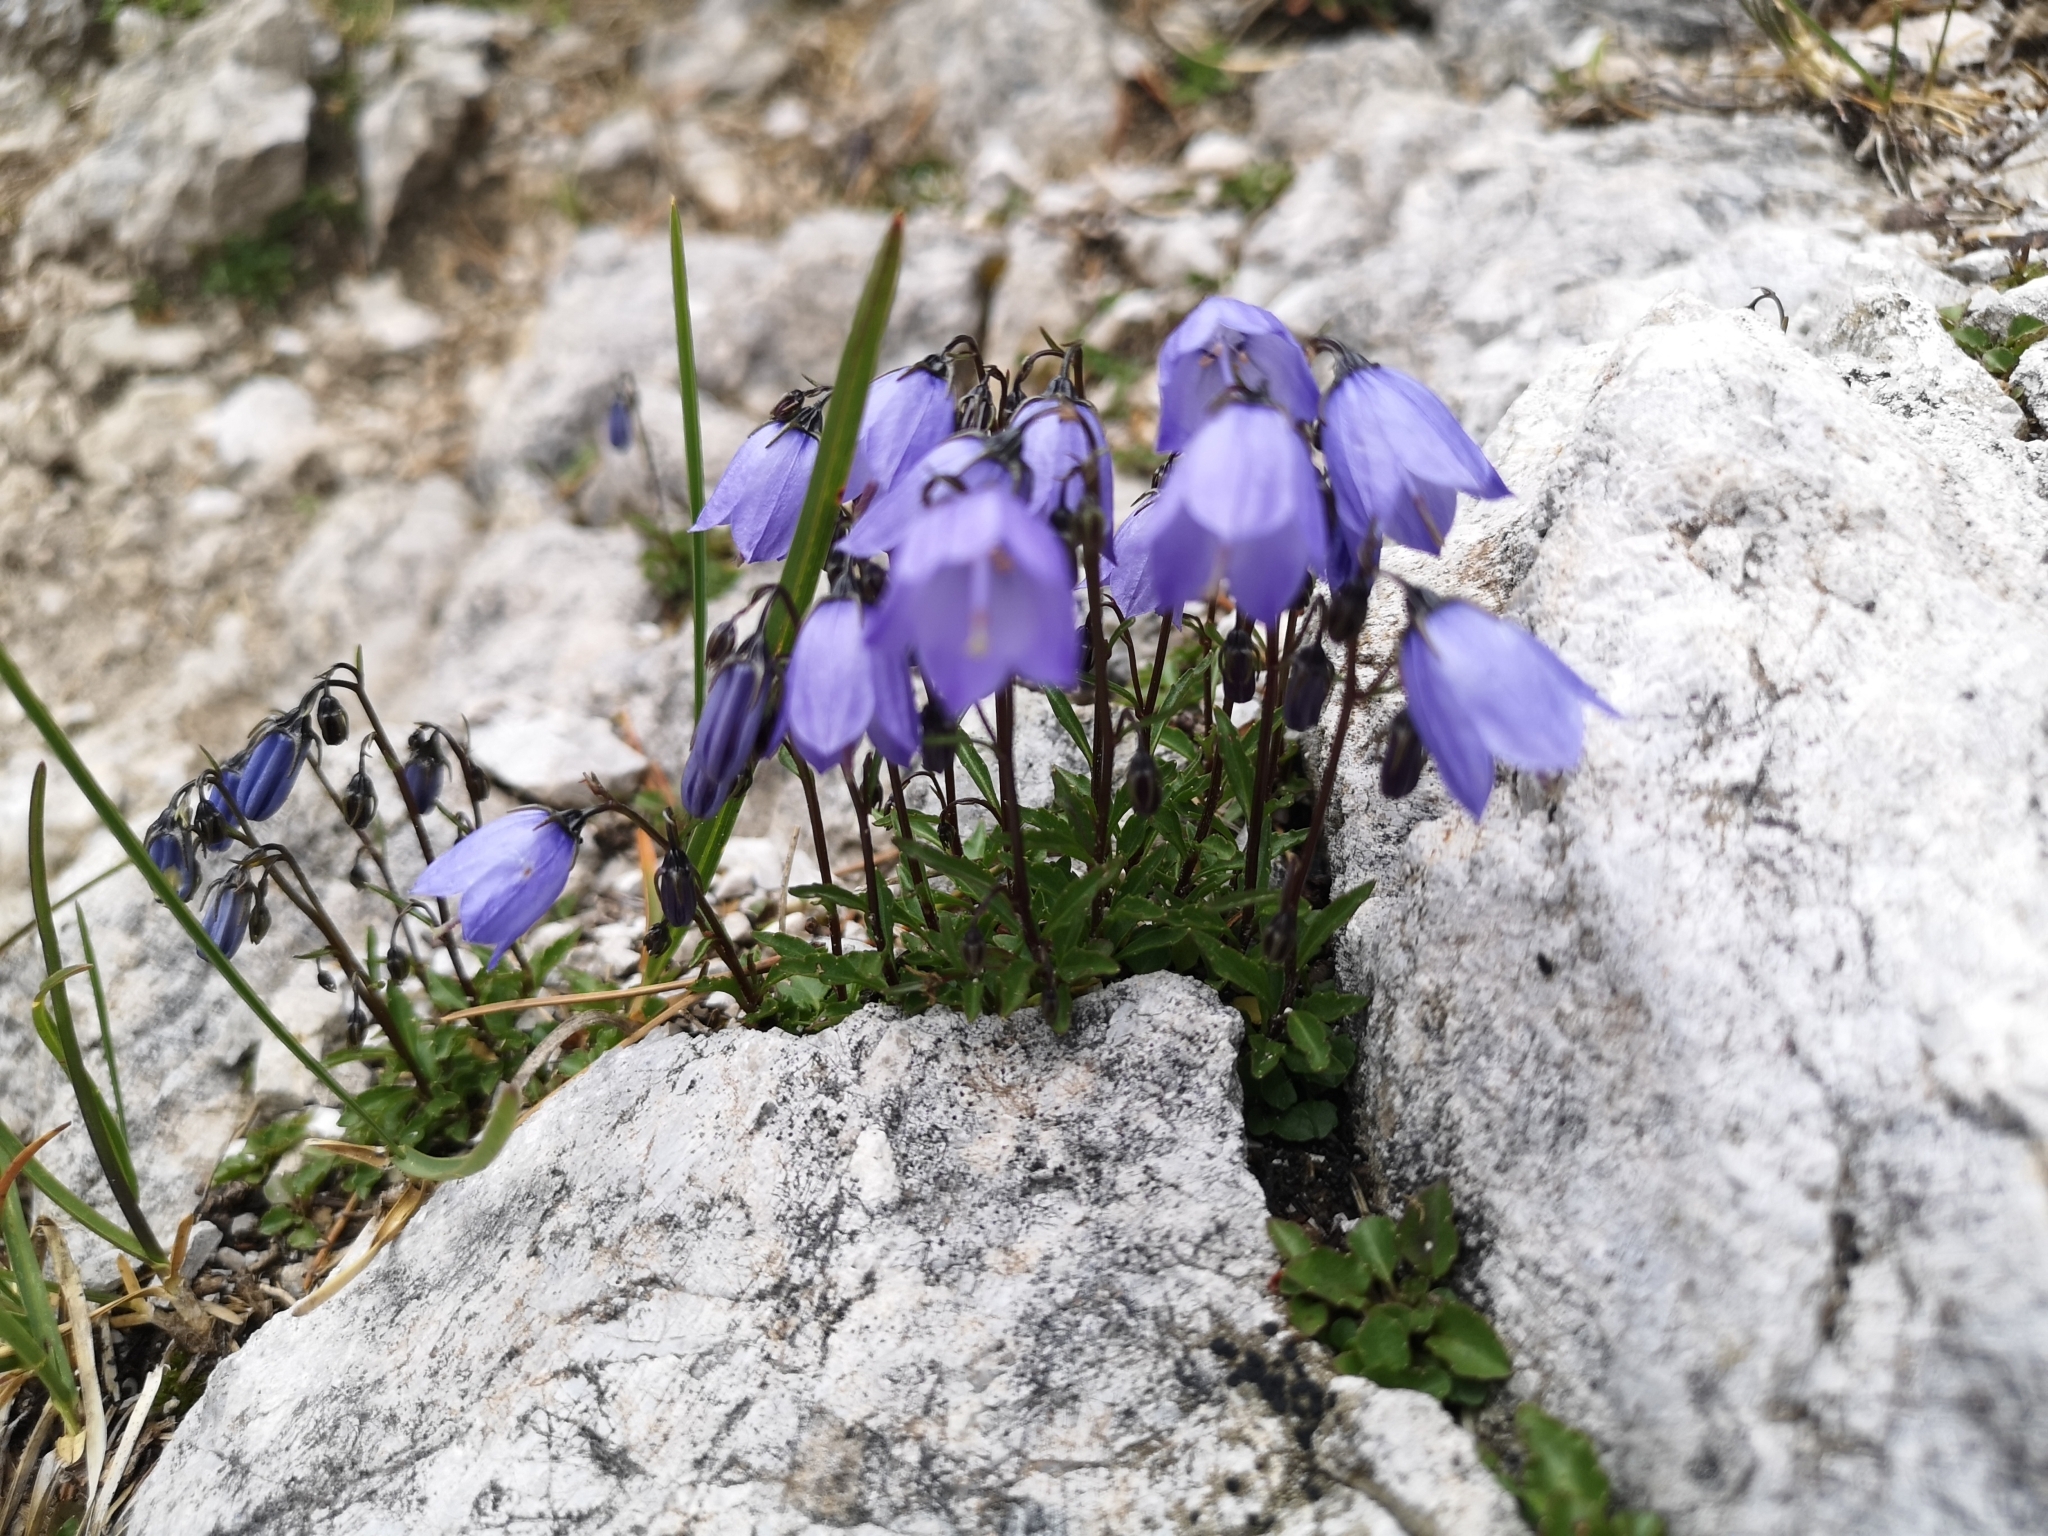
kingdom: Plantae
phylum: Tracheophyta
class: Magnoliopsida
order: Asterales
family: Campanulaceae
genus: Campanula
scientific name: Campanula cochleariifolia
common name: Fairies'-thimbles
